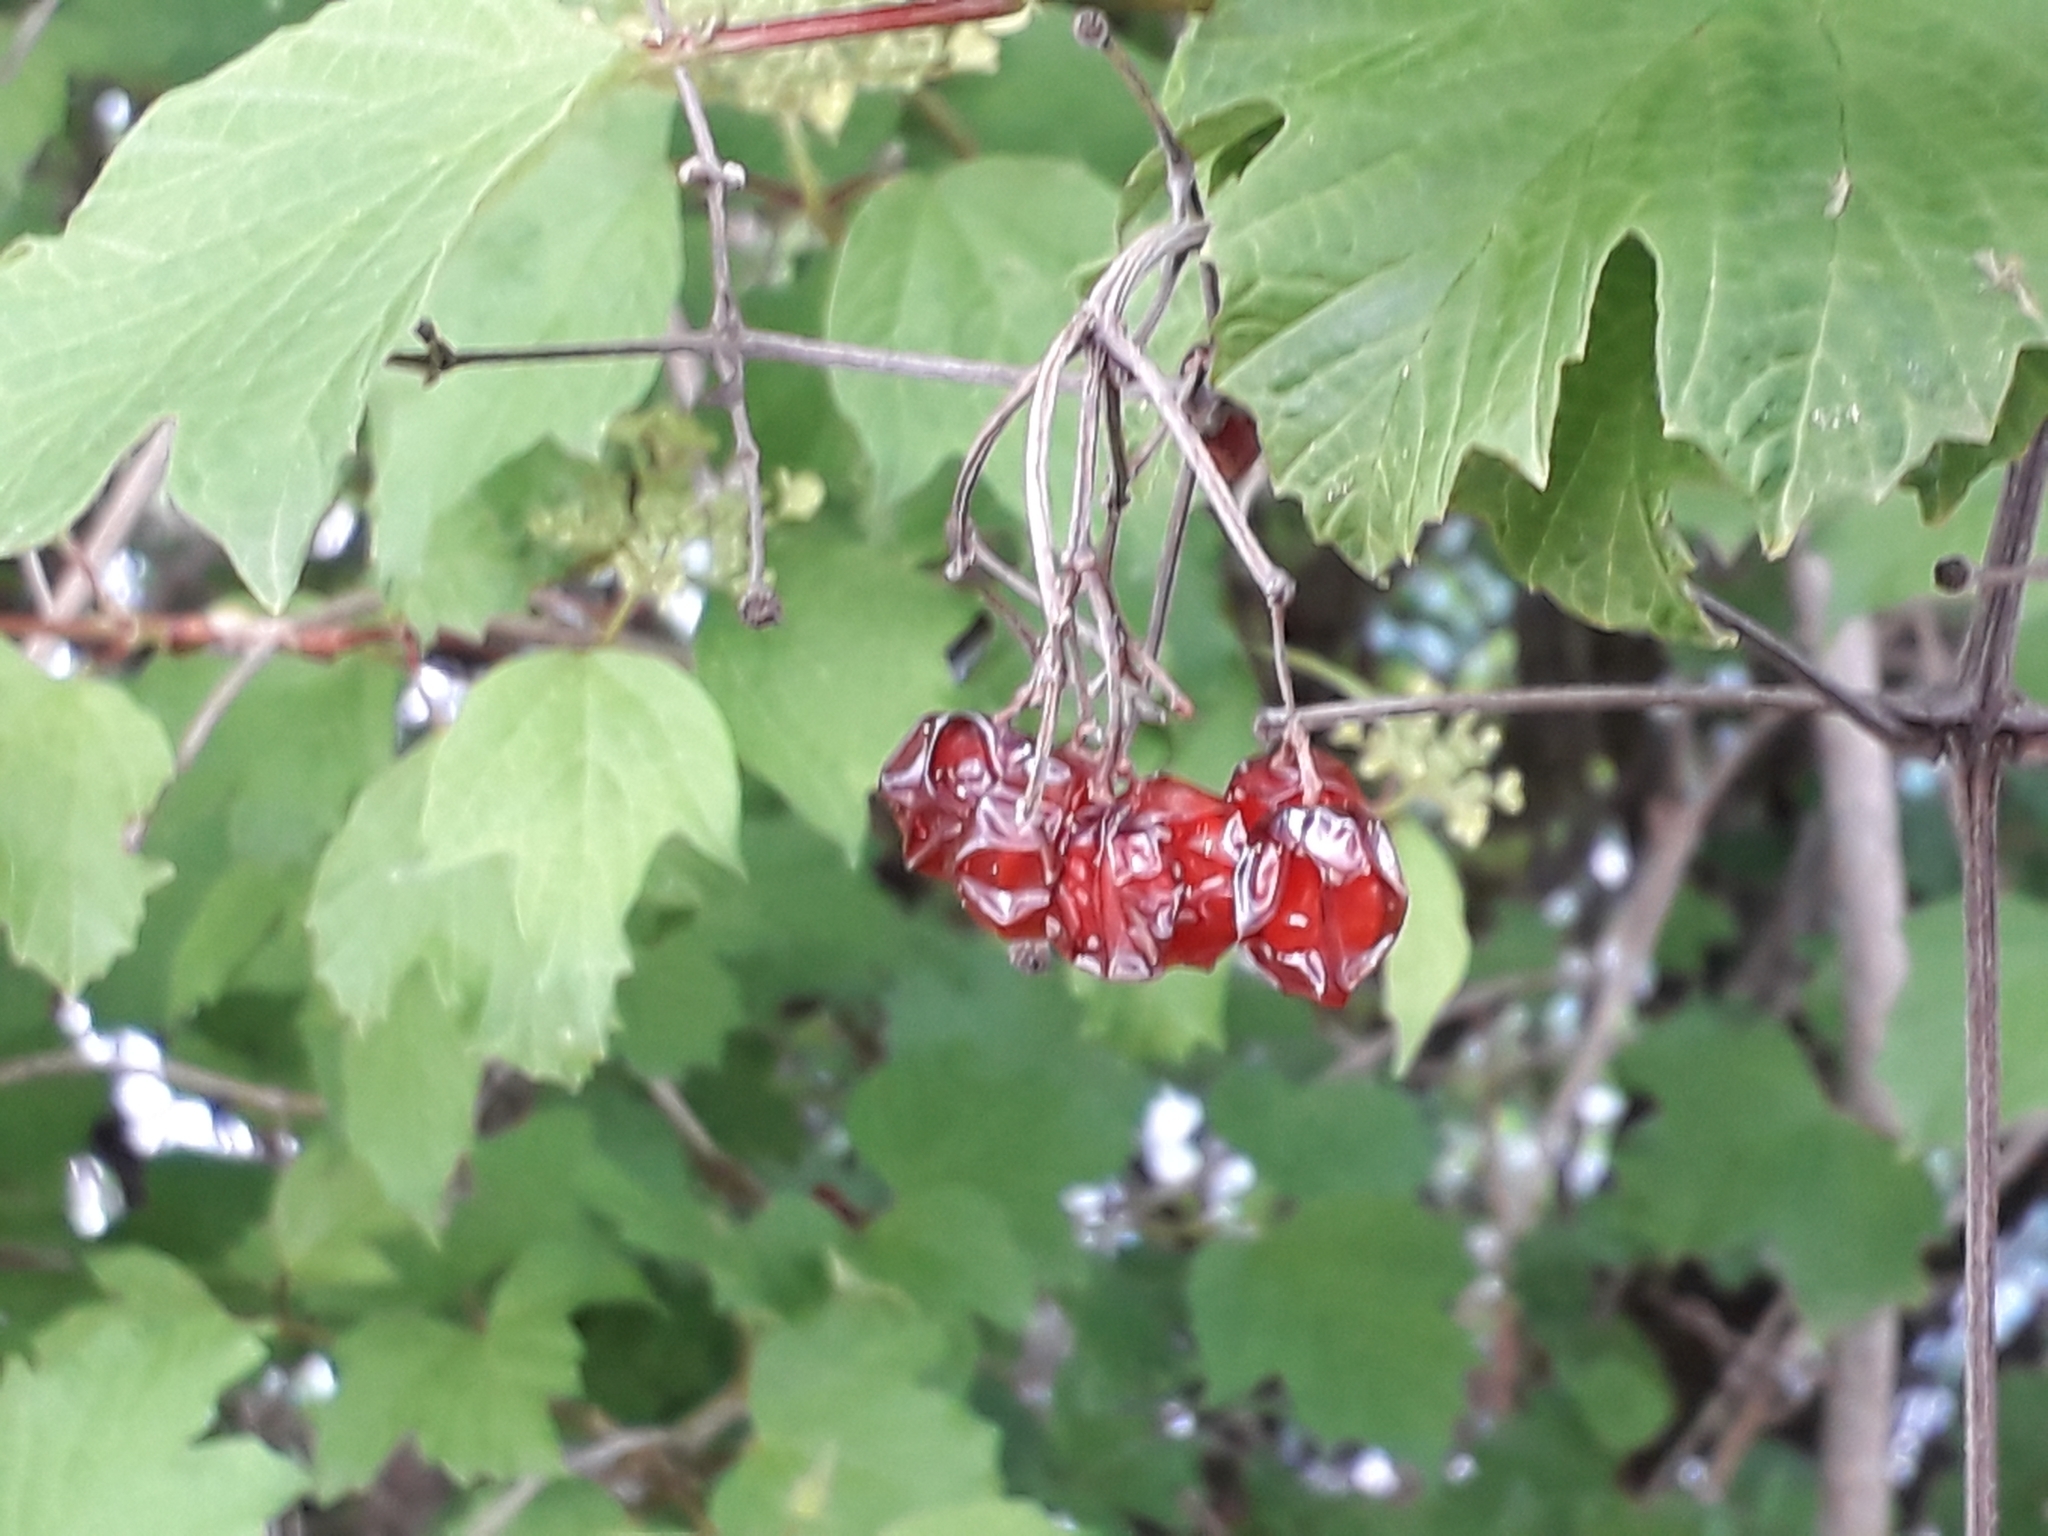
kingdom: Plantae
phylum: Tracheophyta
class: Magnoliopsida
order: Dipsacales
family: Viburnaceae
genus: Viburnum
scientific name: Viburnum opulus
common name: Guelder-rose
